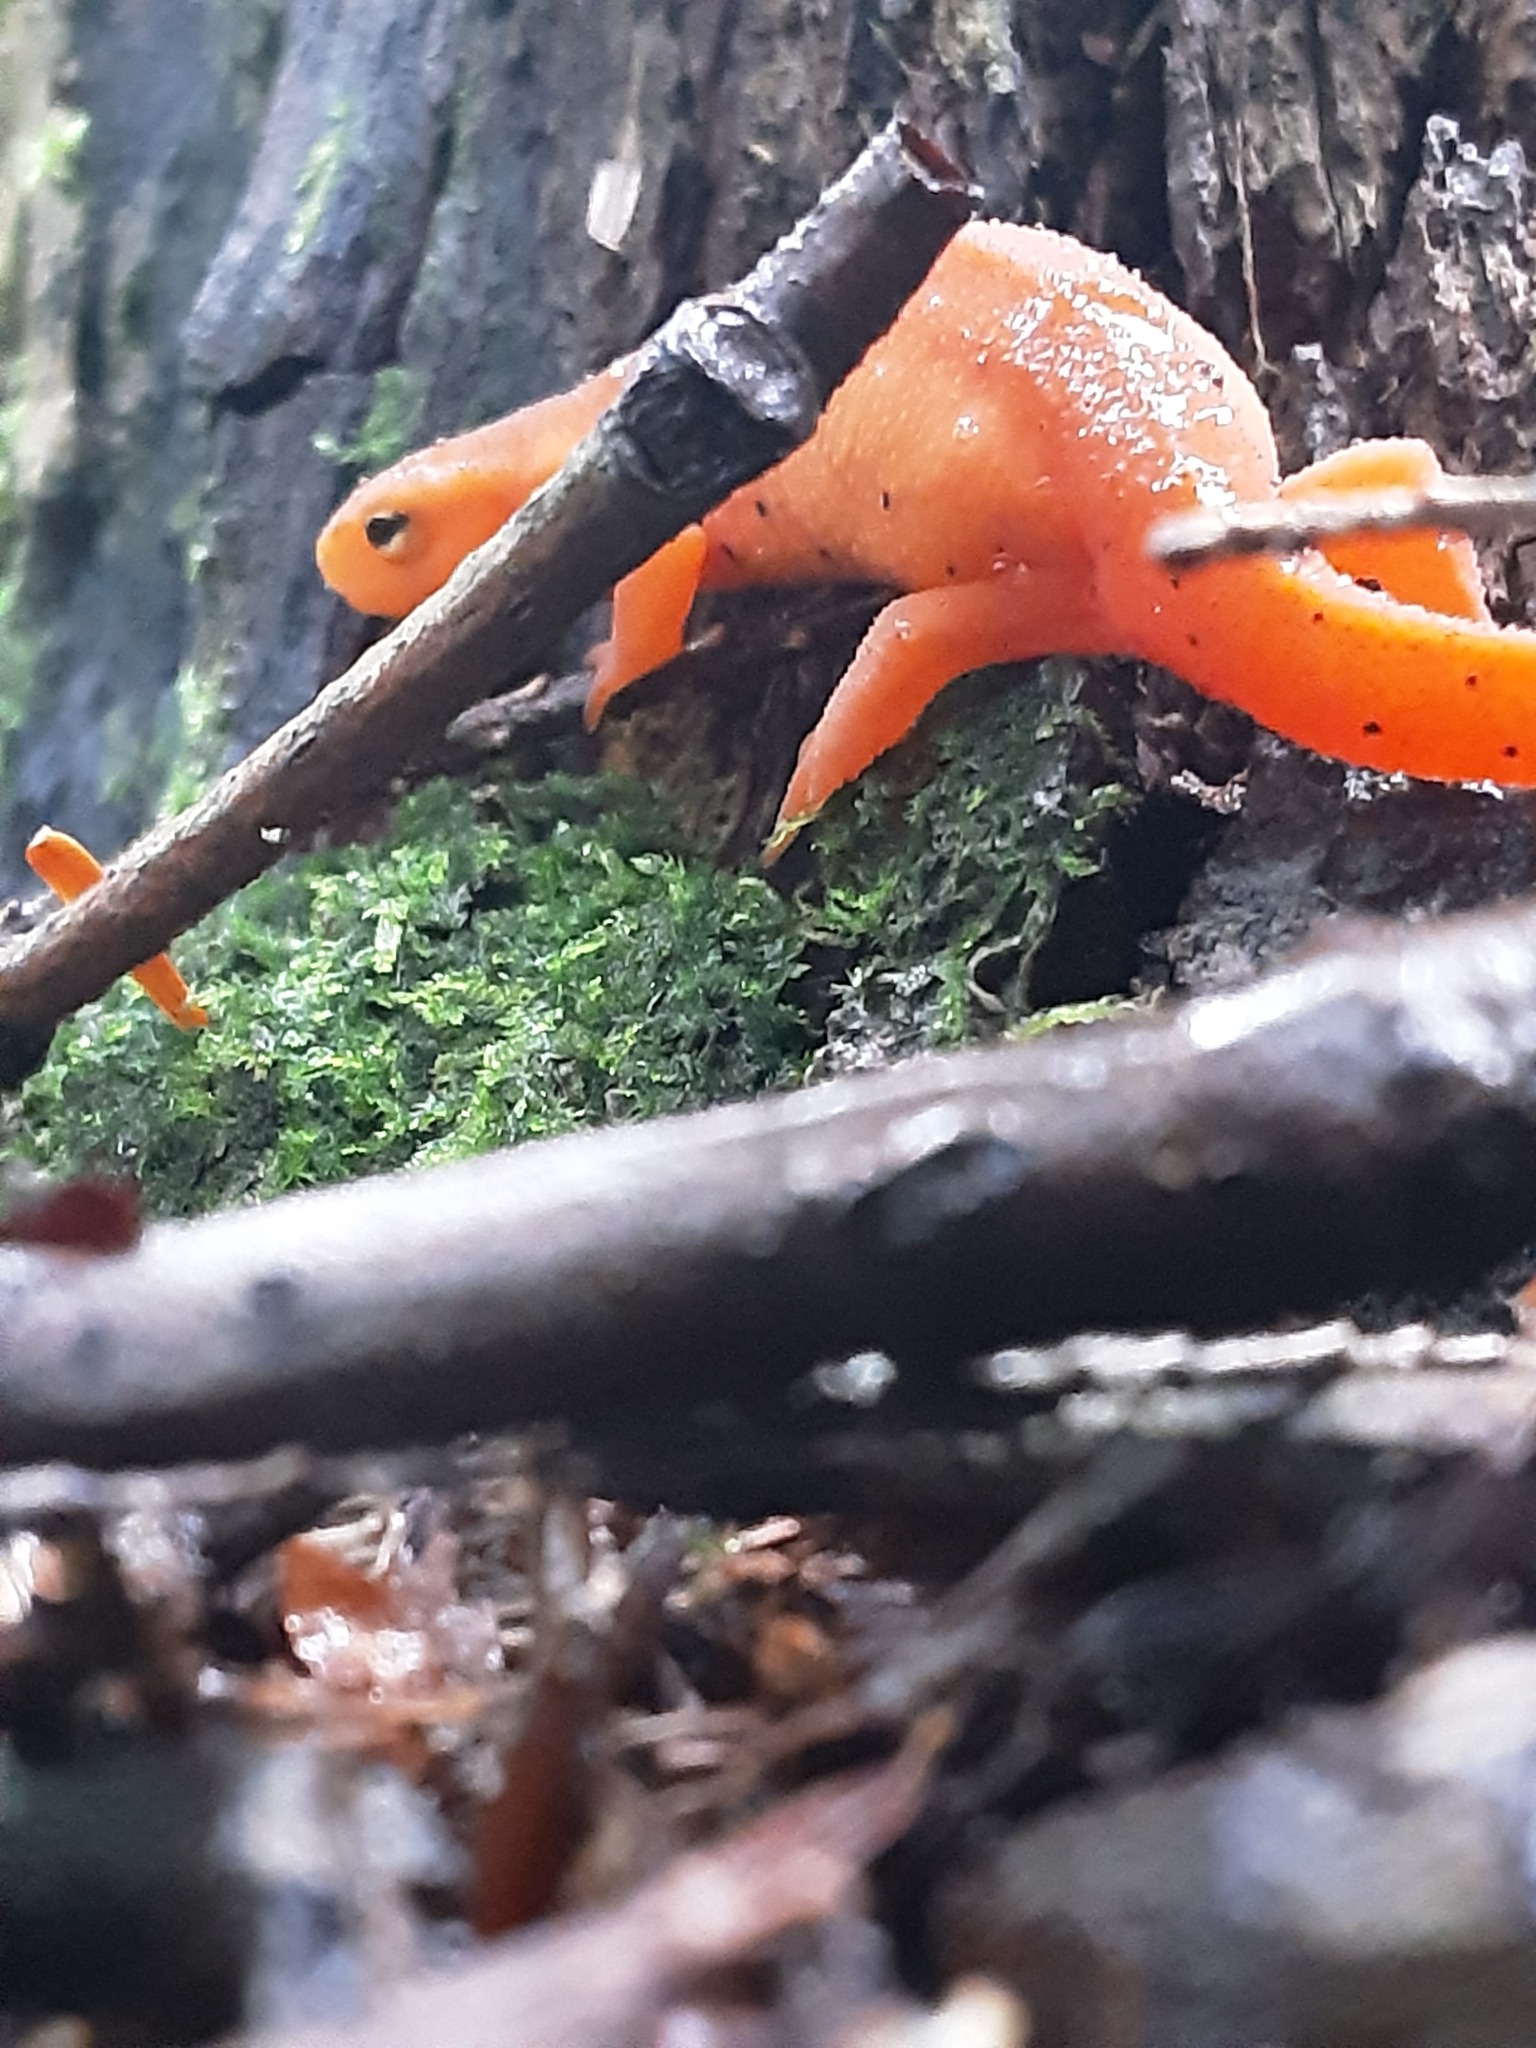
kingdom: Animalia
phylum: Chordata
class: Amphibia
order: Caudata
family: Salamandridae
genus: Notophthalmus
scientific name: Notophthalmus viridescens
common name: Eastern newt
